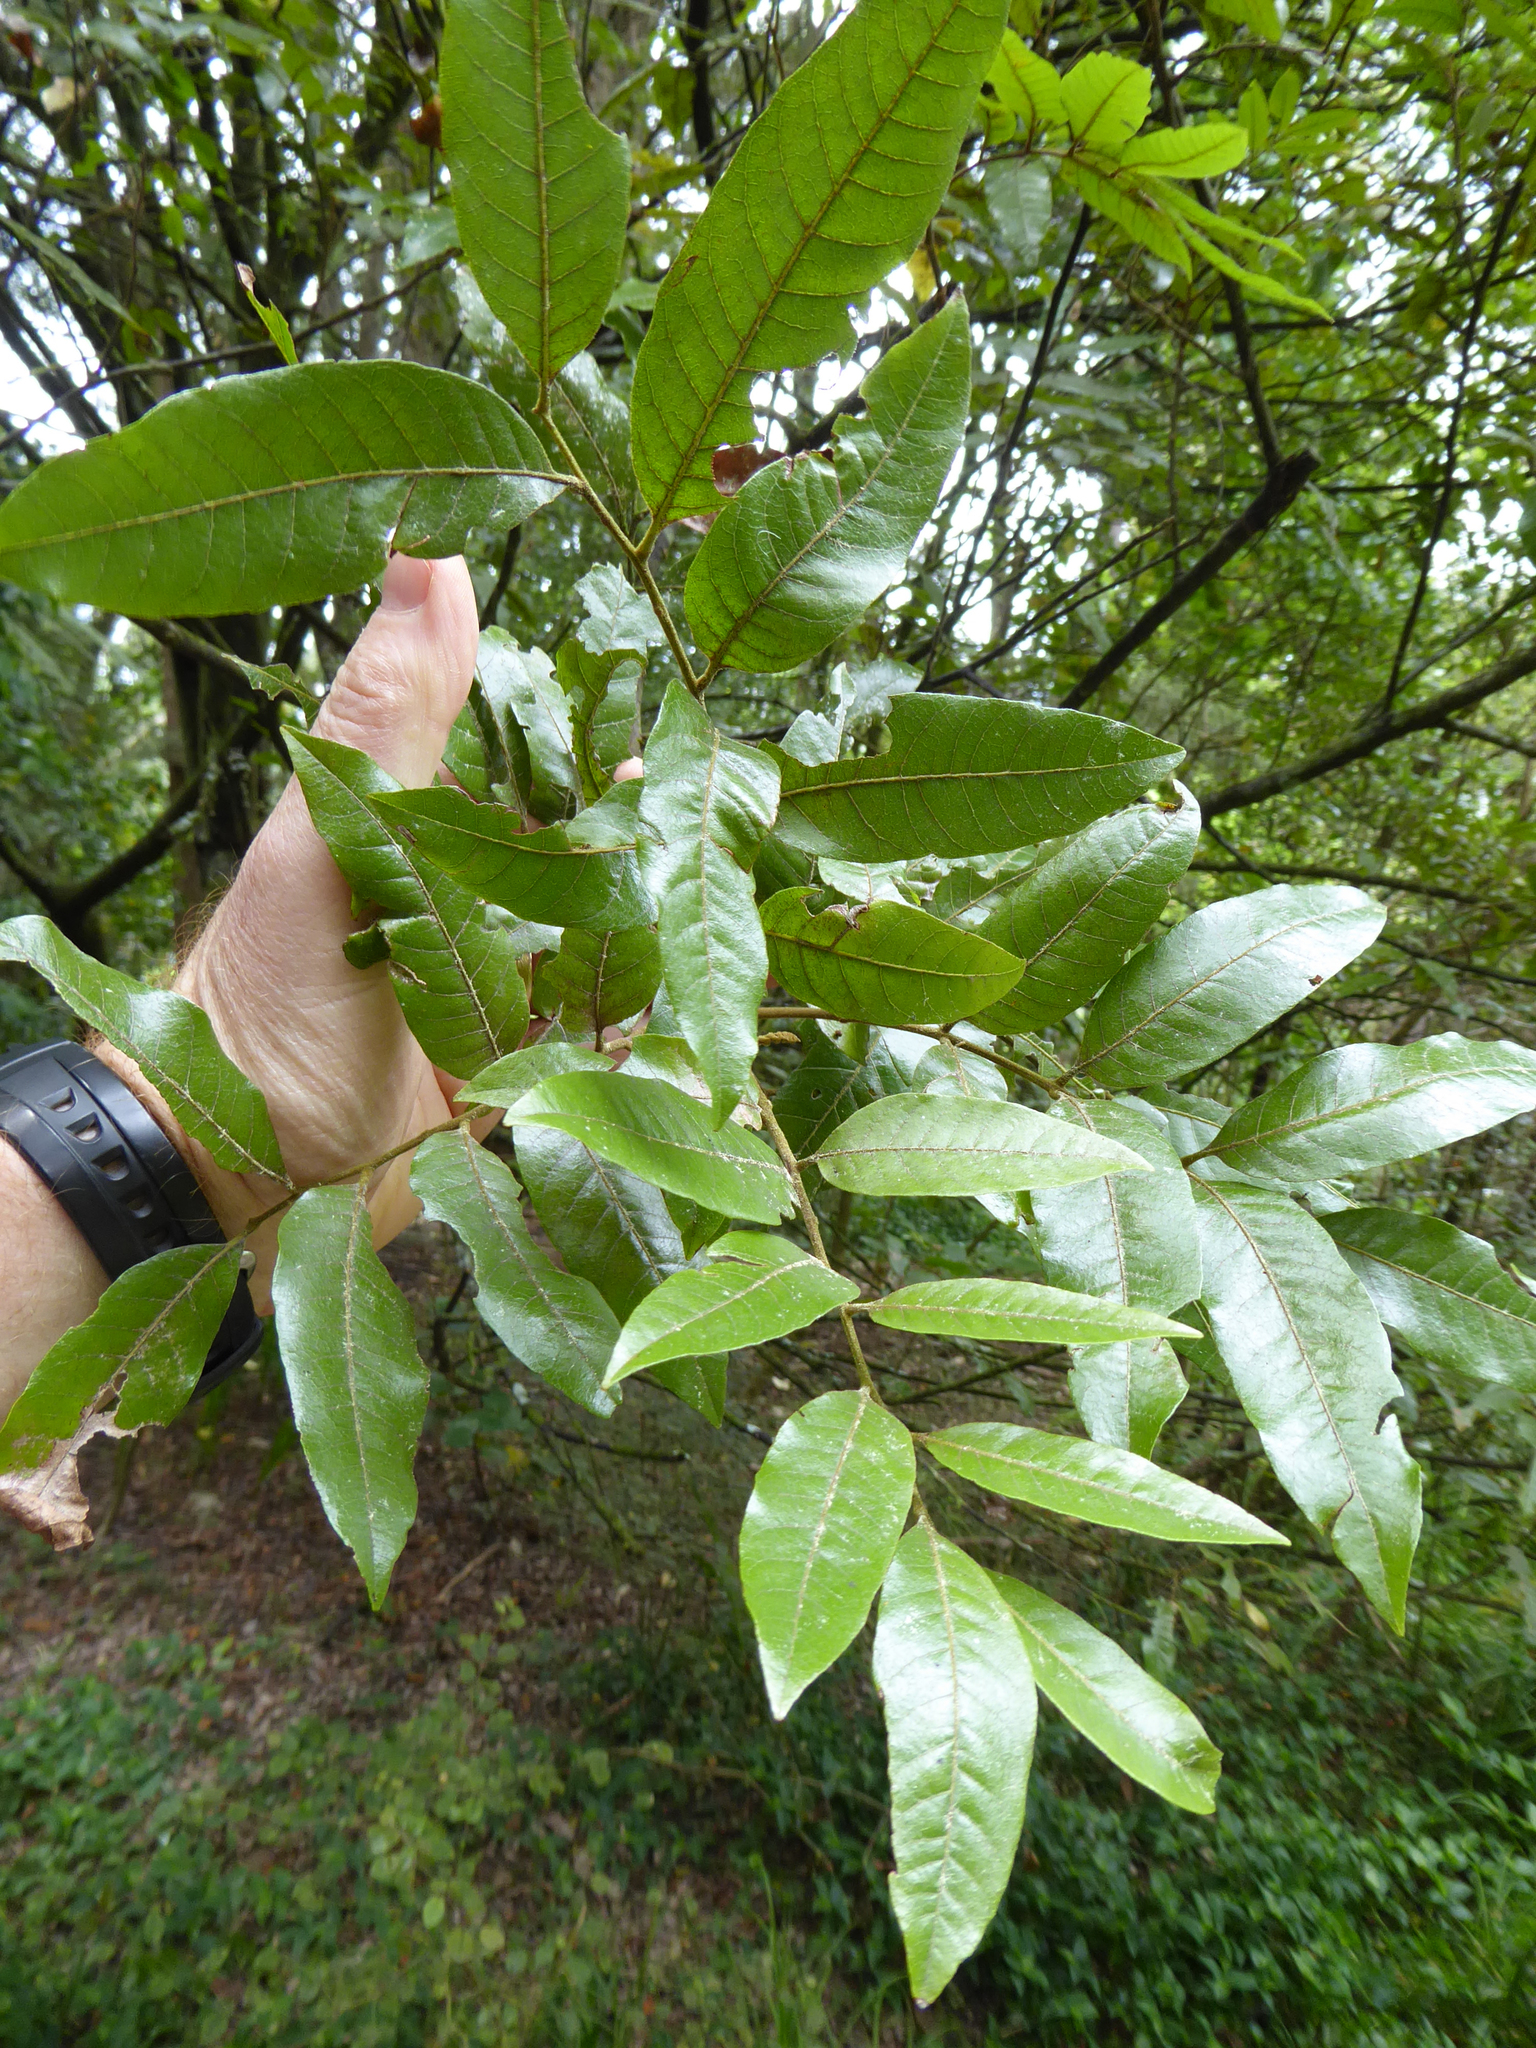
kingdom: Plantae
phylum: Tracheophyta
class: Magnoliopsida
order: Sapindales
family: Sapindaceae
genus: Alectryon
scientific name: Alectryon excelsus
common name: Three kings titoki
